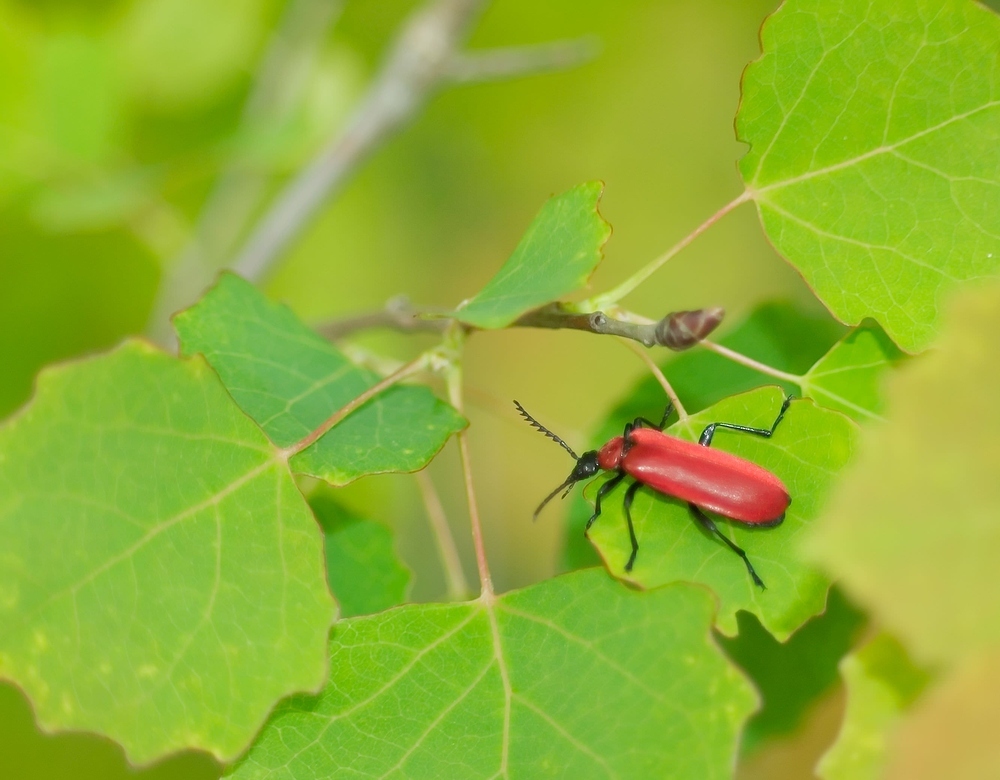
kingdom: Animalia
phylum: Arthropoda
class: Insecta
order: Coleoptera
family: Pyrochroidae
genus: Pyrochroa
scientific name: Pyrochroa coccinea
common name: Black-headed cardinal beetle
